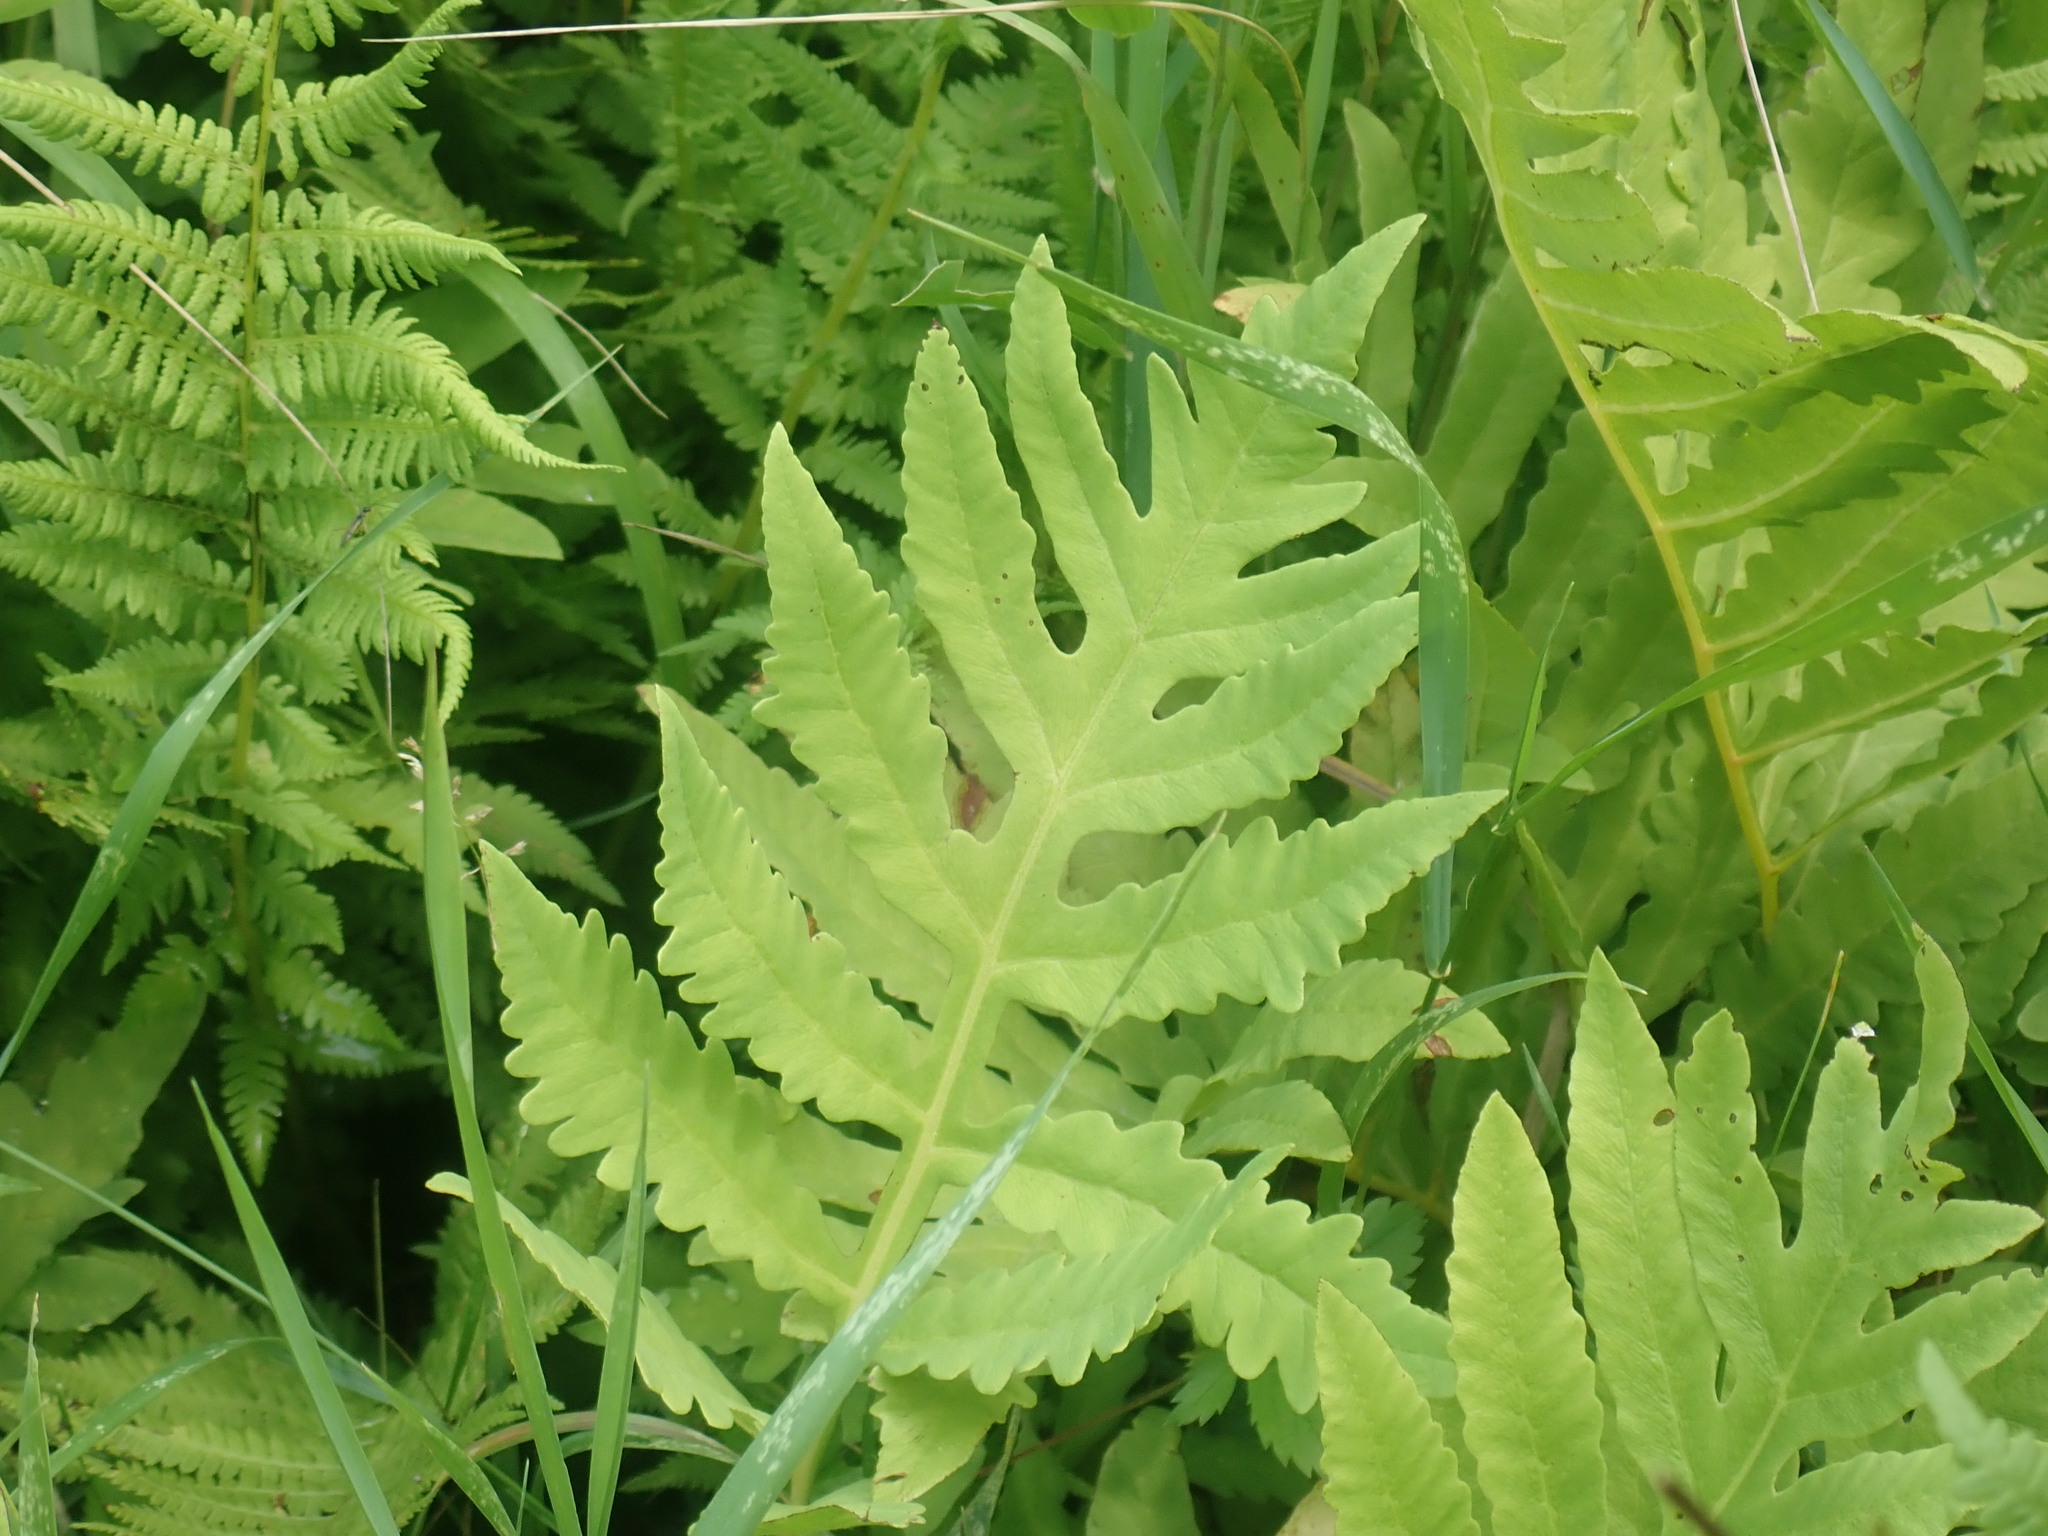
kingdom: Plantae
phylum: Tracheophyta
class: Polypodiopsida
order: Polypodiales
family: Onocleaceae
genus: Onoclea
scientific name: Onoclea sensibilis
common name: Sensitive fern
